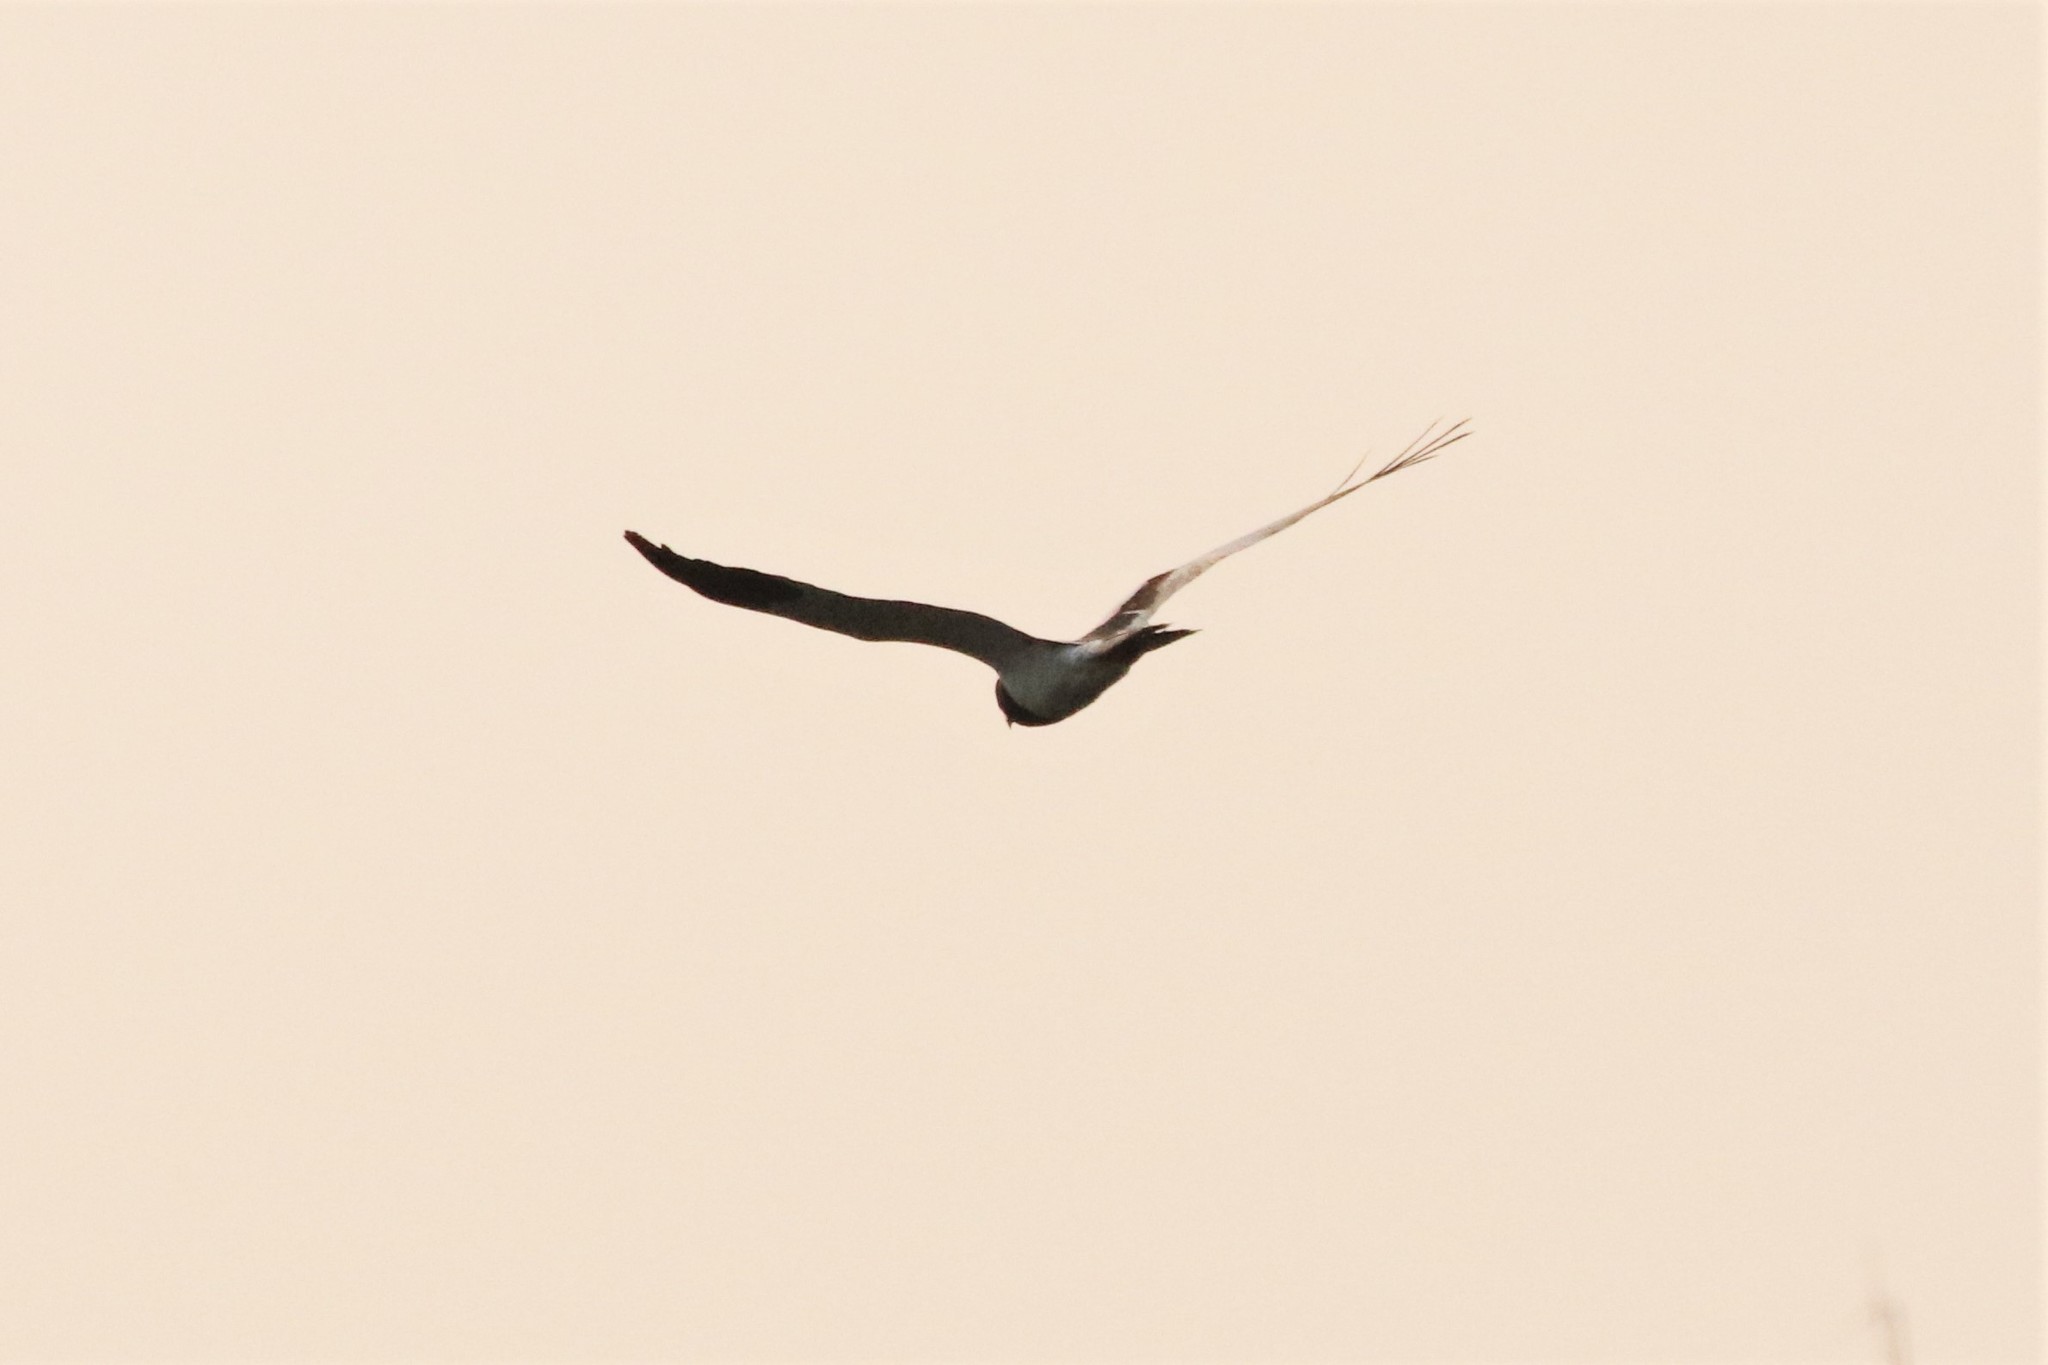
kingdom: Animalia
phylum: Chordata
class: Aves
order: Accipitriformes
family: Accipitridae
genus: Circus
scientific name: Circus melanoleucos
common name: Pied harrier
